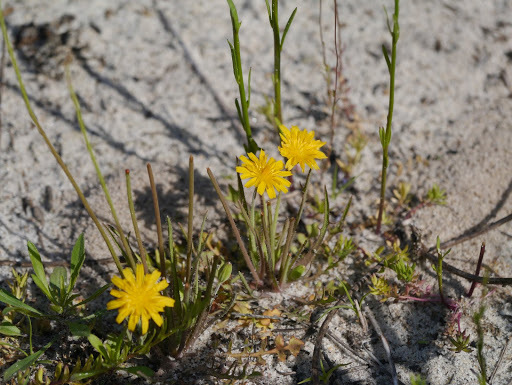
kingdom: Plantae
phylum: Tracheophyta
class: Magnoliopsida
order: Asterales
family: Asteraceae
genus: Krigia
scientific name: Krigia virginica
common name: Virginia dwarf-dandelion
